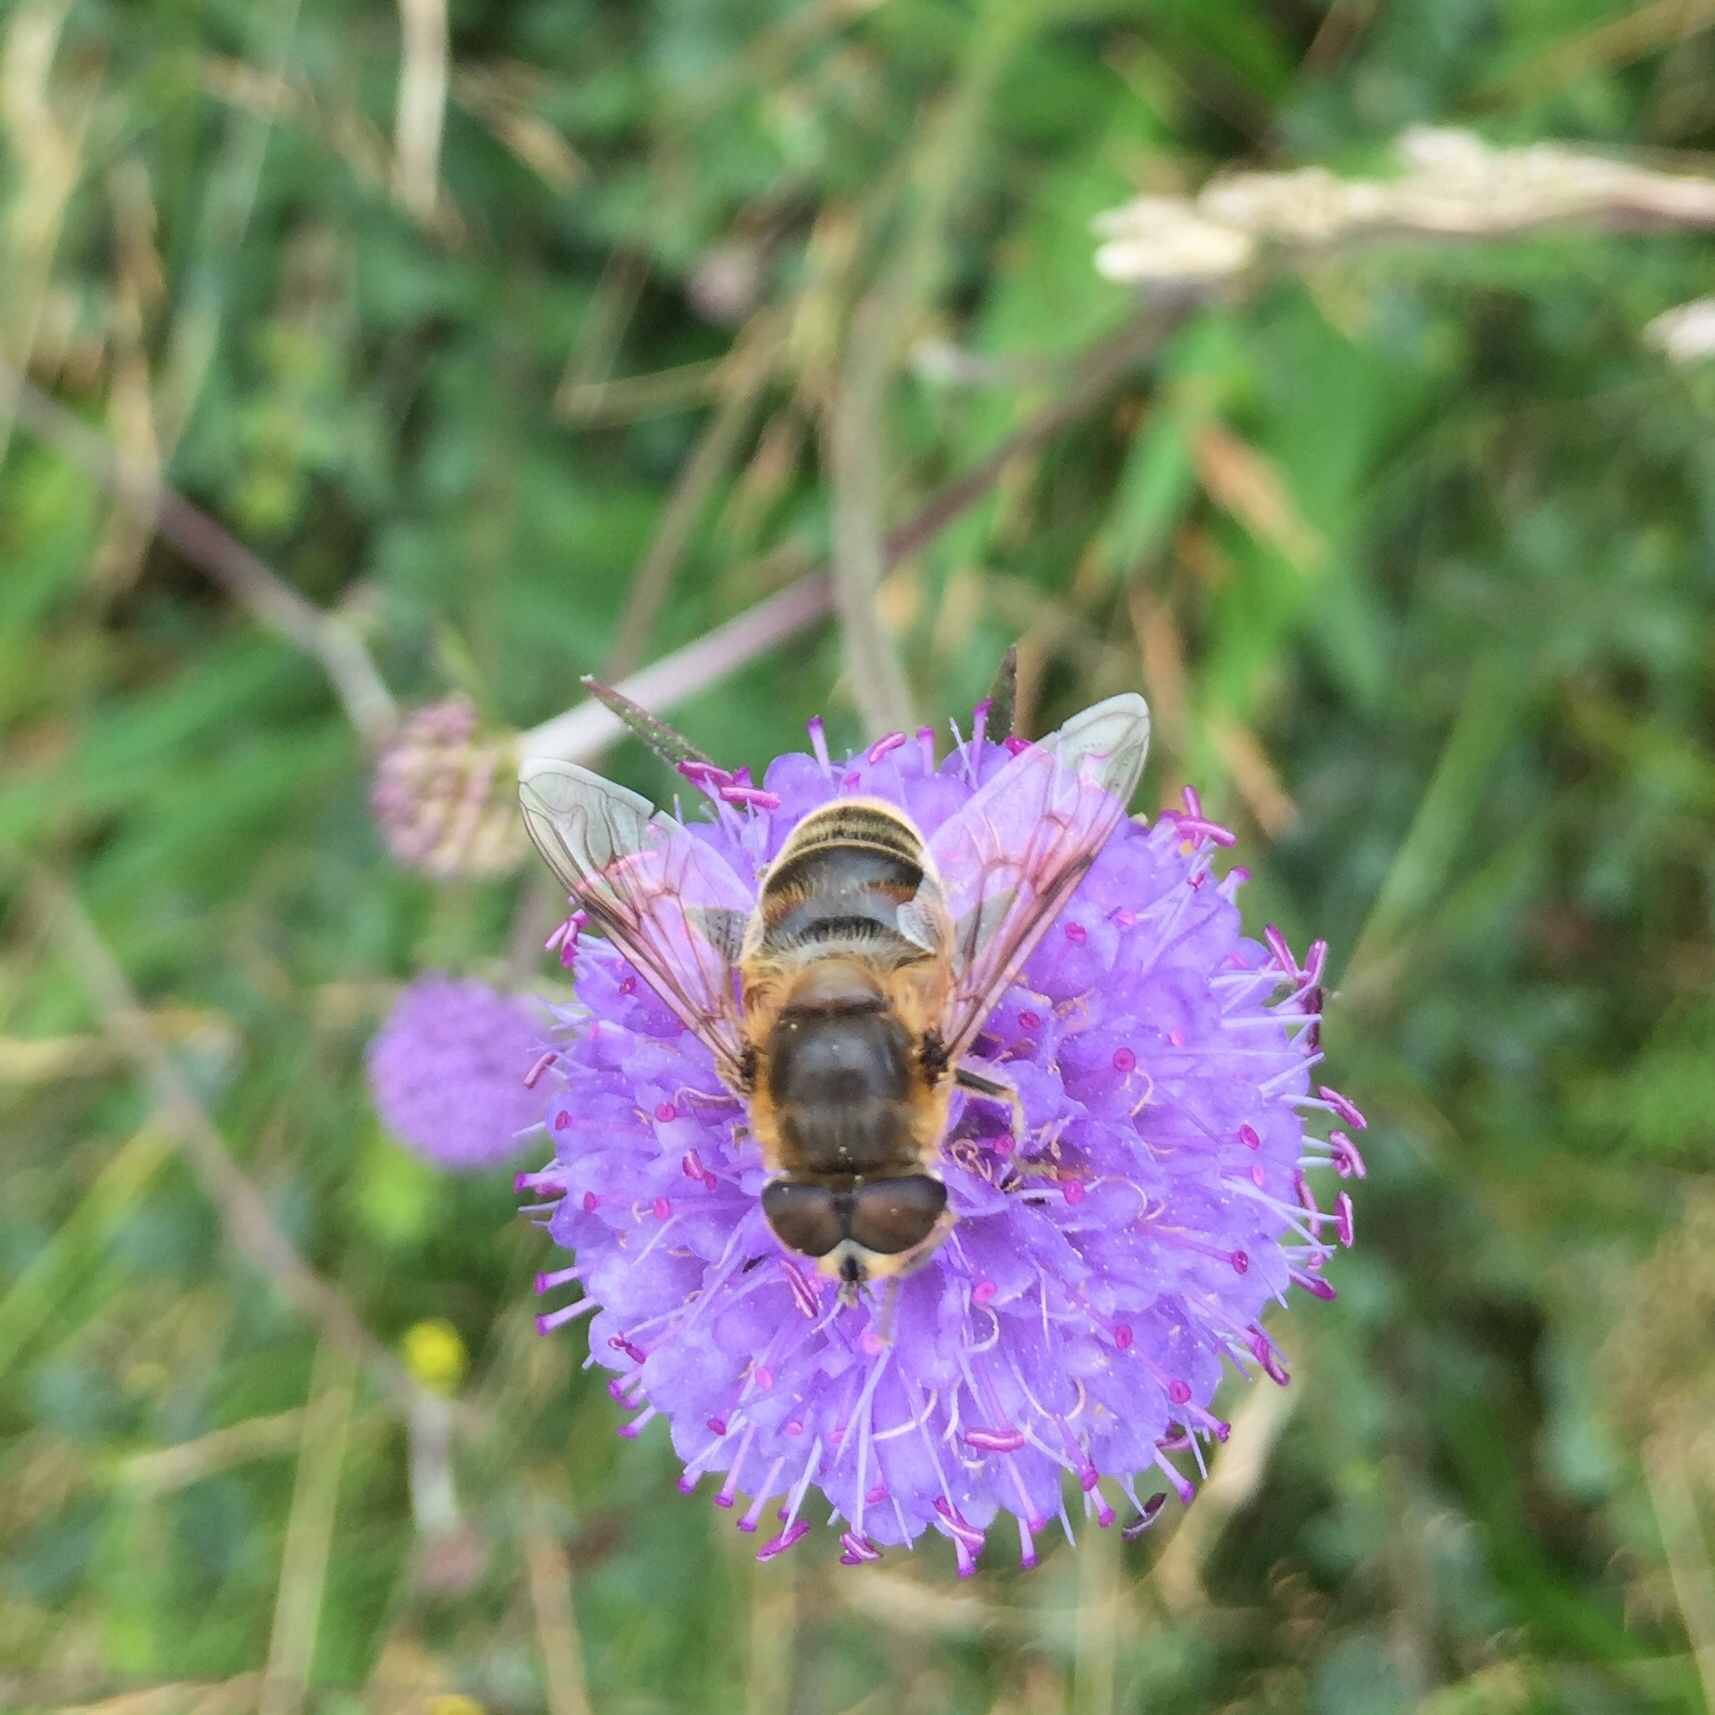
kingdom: Animalia
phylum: Arthropoda
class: Insecta
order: Diptera
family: Syrphidae
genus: Eristalis
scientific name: Eristalis tenax
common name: Drone fly
